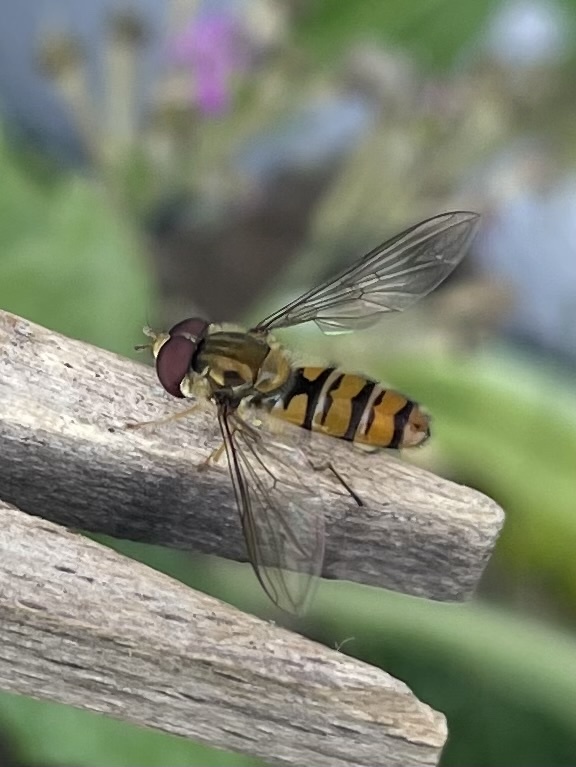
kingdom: Animalia
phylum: Arthropoda
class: Insecta
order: Diptera
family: Syrphidae
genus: Episyrphus
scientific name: Episyrphus balteatus
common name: Marmalade hoverfly
